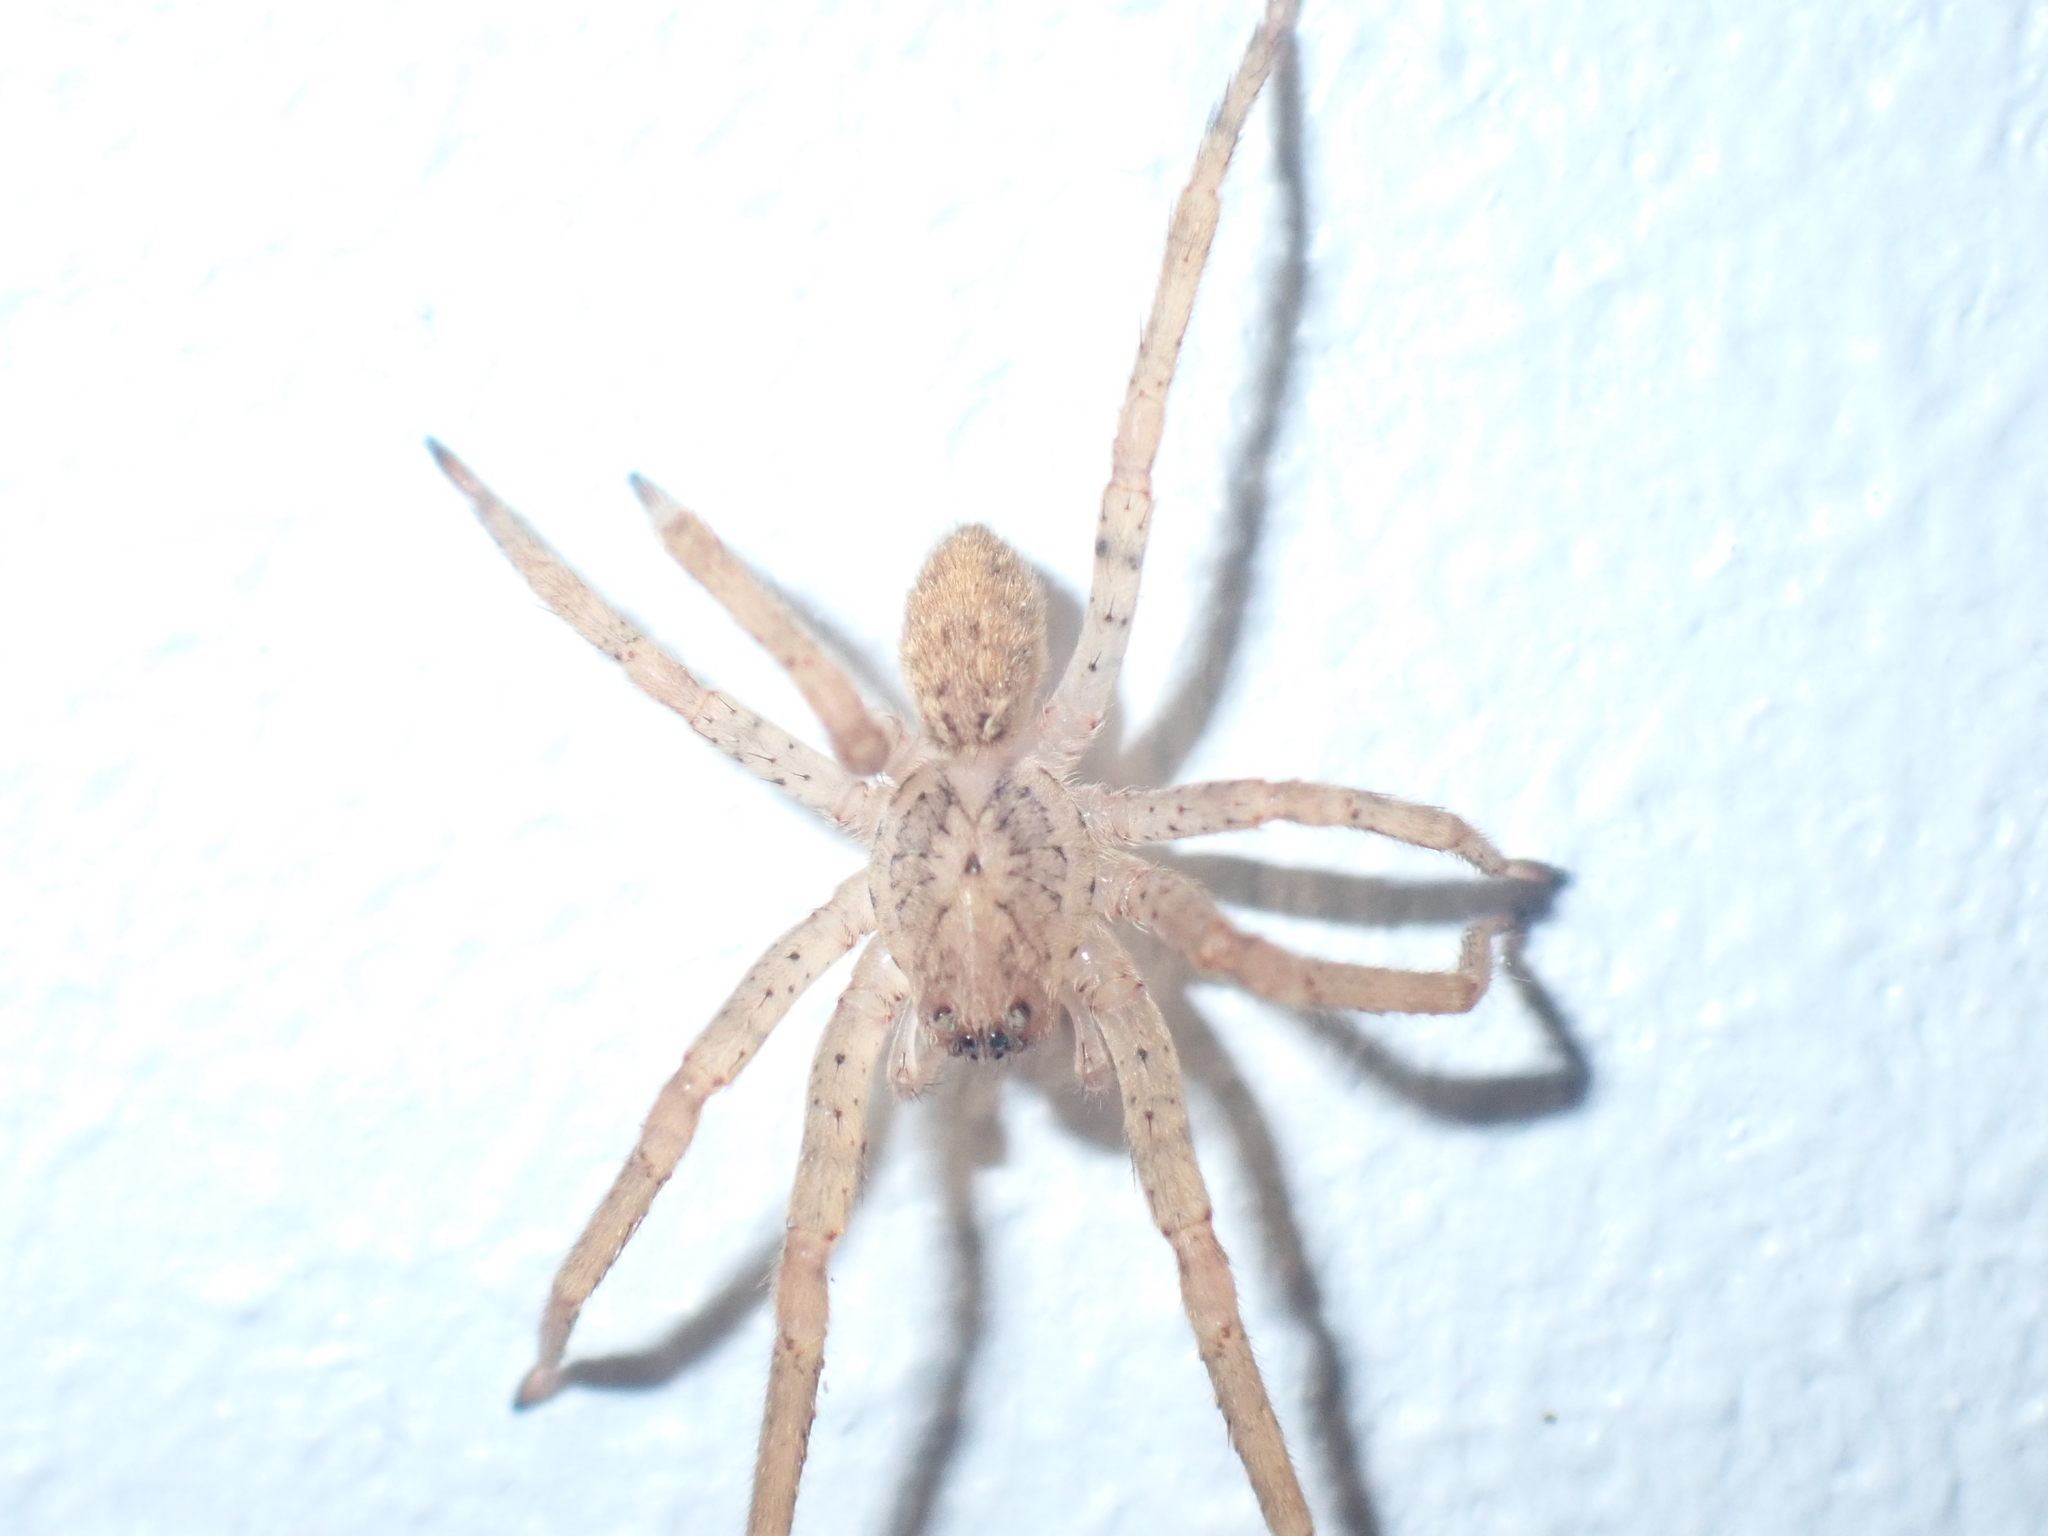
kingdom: Animalia
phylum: Arthropoda
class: Arachnida
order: Araneae
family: Zoropsidae
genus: Zoropsis
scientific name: Zoropsis spinimana
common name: Zoropsid spider
